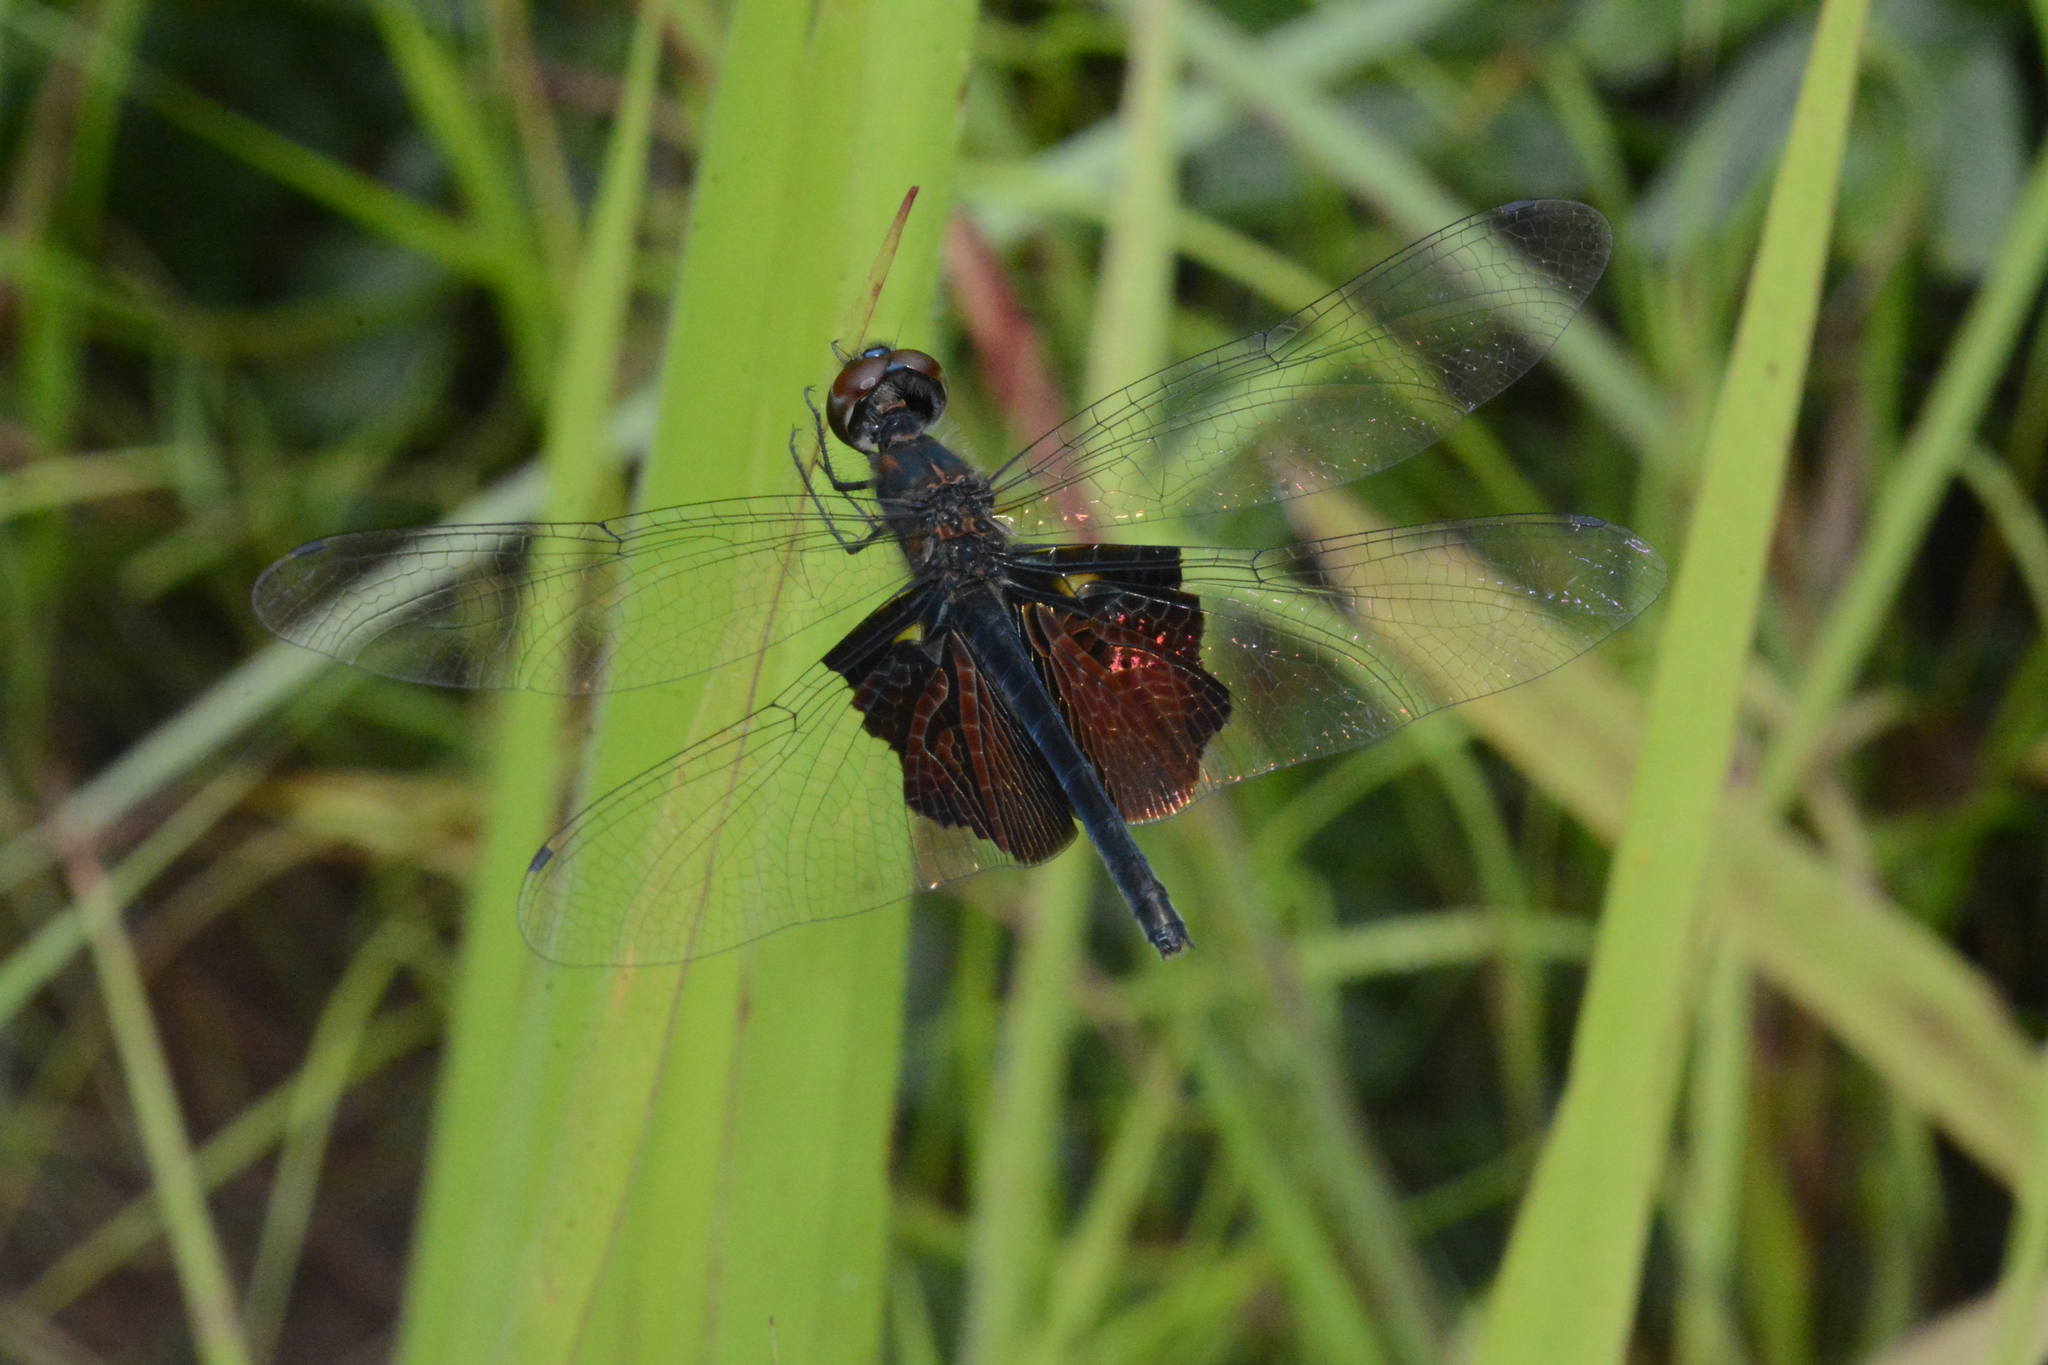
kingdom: Animalia
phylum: Arthropoda
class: Insecta
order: Odonata
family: Libellulidae
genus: Rhyothemis
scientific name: Rhyothemis semihyalina
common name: Phantom flutterer
